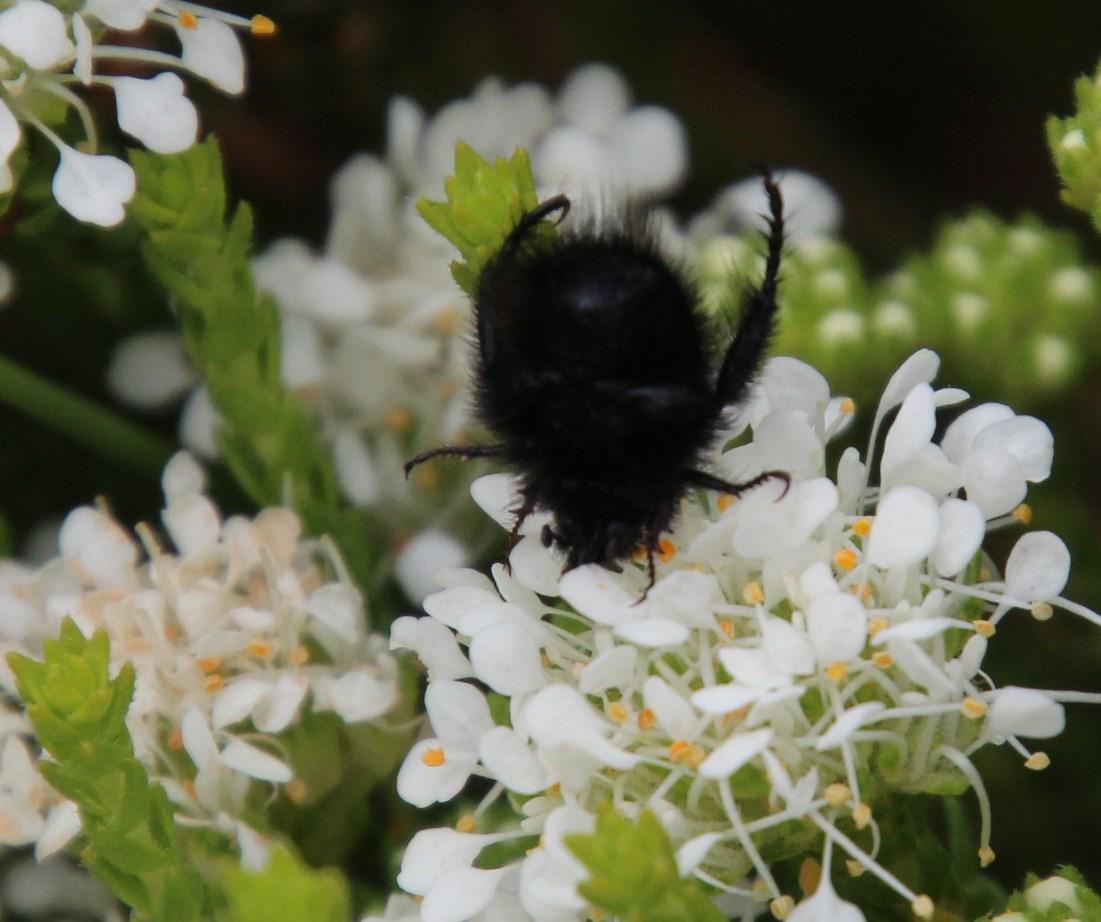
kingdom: Plantae
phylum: Tracheophyta
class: Magnoliopsida
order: Sapindales
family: Rutaceae
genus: Agathosma
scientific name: Agathosma imbricata
